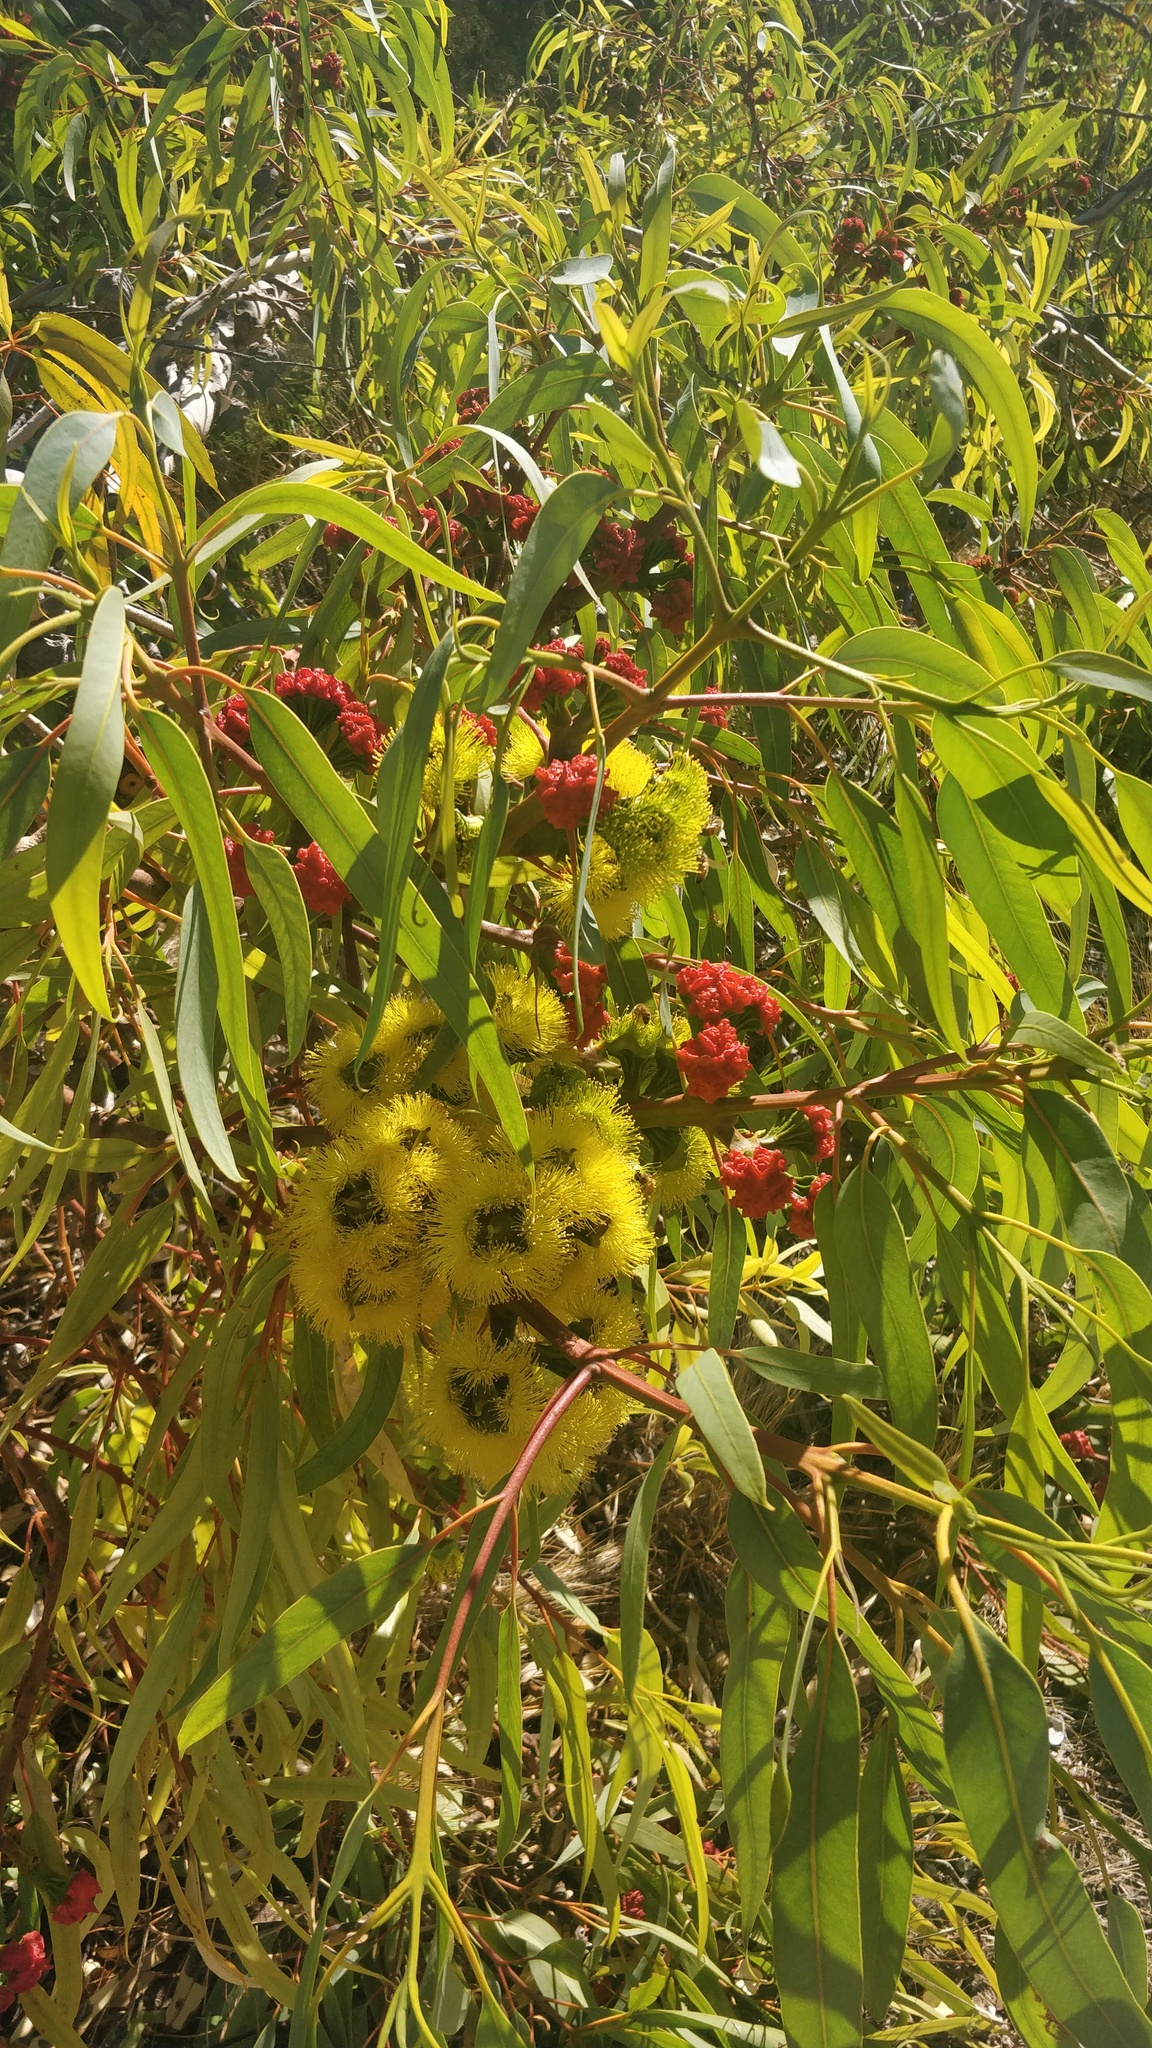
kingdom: Plantae
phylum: Tracheophyta
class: Magnoliopsida
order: Myrtales
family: Myrtaceae
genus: Eucalyptus
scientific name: Eucalyptus erythrocorys
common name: Bookara gum
